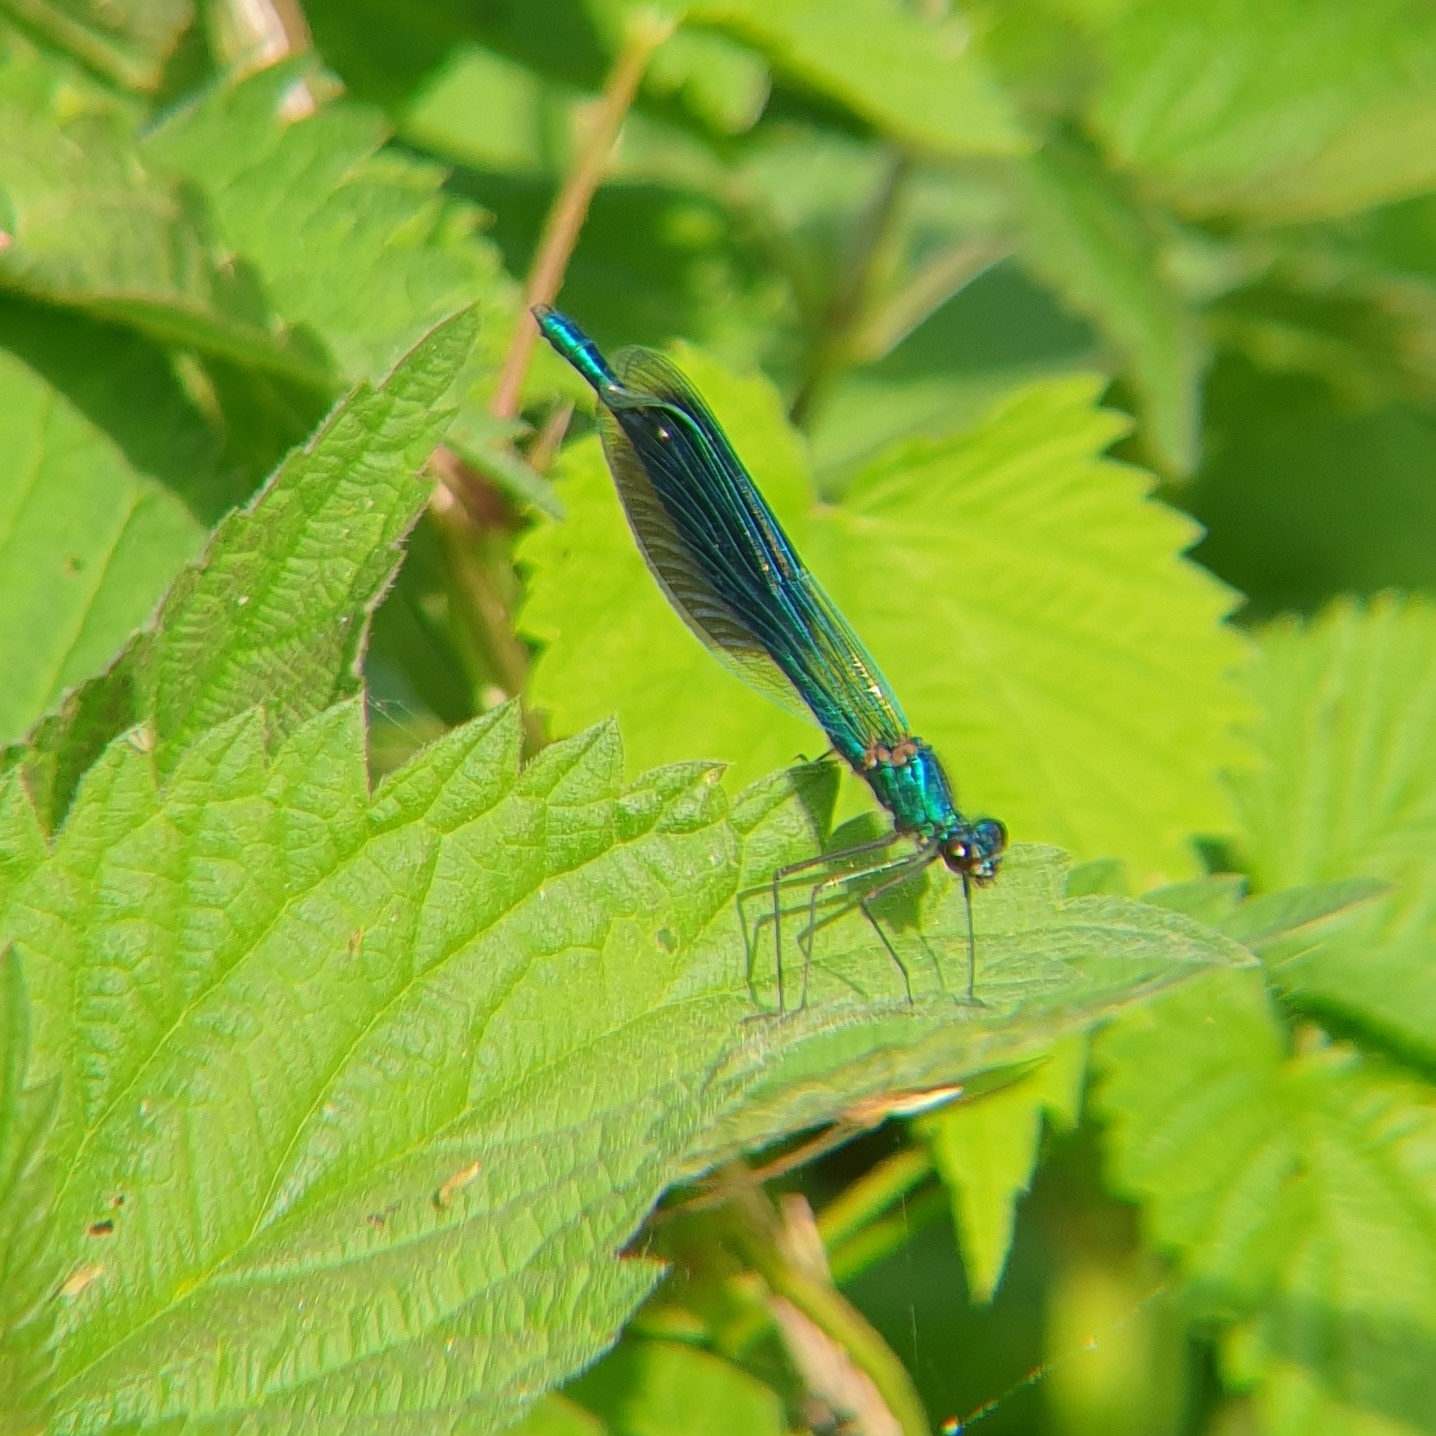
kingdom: Animalia
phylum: Arthropoda
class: Insecta
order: Odonata
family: Calopterygidae
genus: Calopteryx
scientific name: Calopteryx splendens
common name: Banded demoiselle
